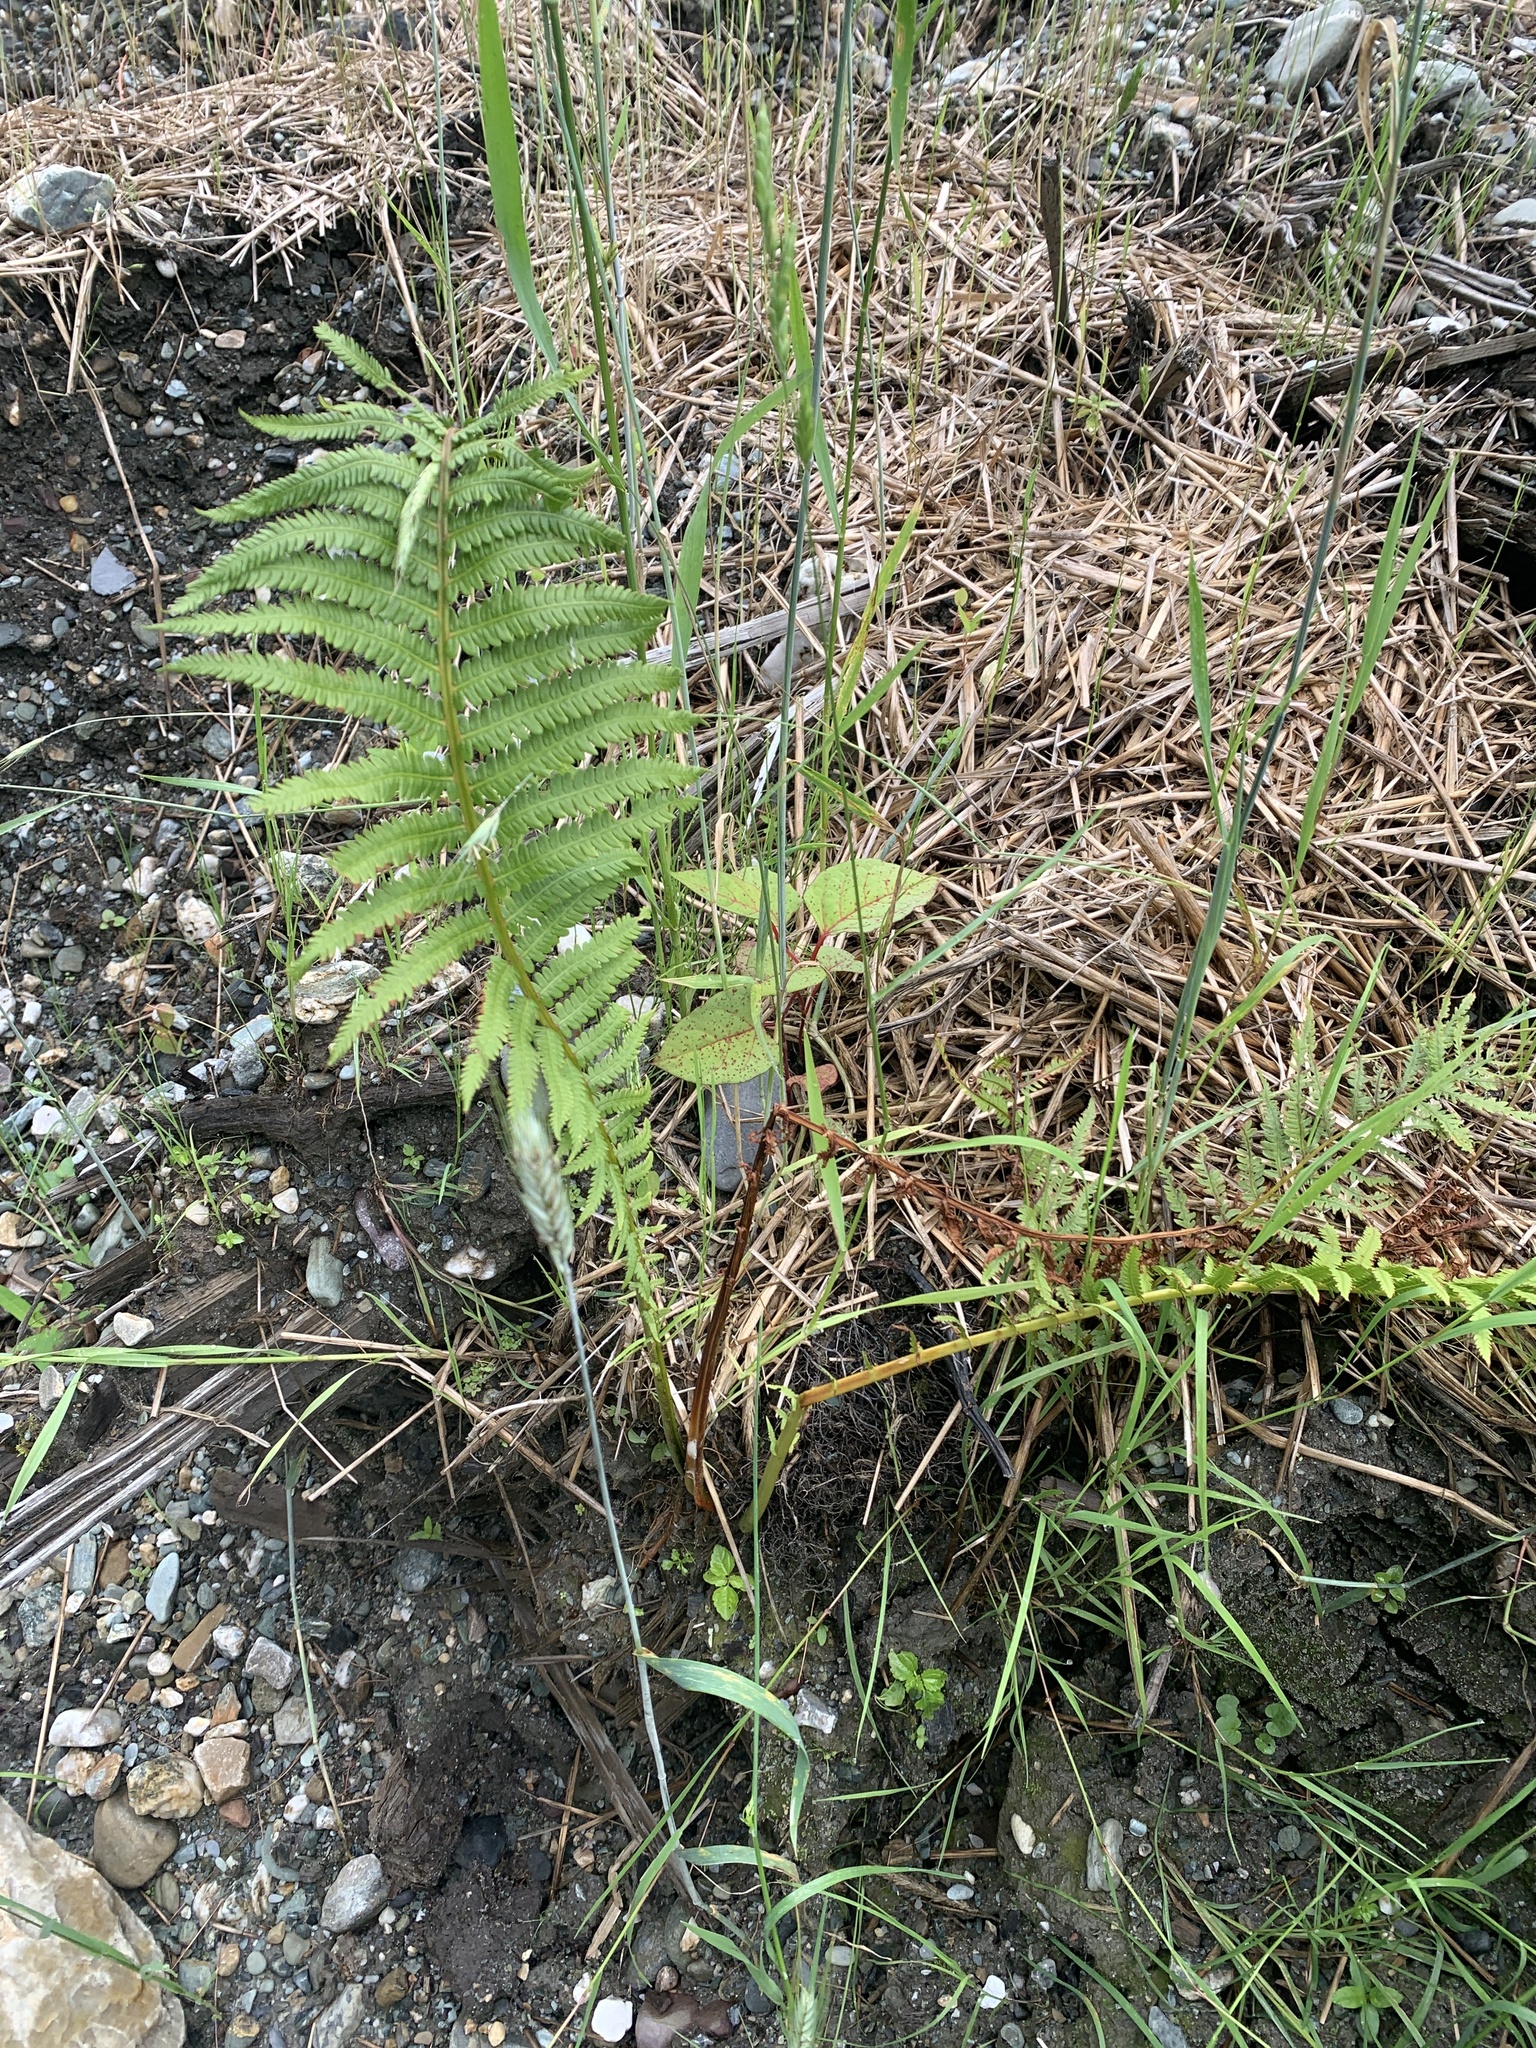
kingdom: Plantae
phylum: Tracheophyta
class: Polypodiopsida
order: Polypodiales
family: Onocleaceae
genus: Matteuccia
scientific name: Matteuccia struthiopteris
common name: Ostrich fern
